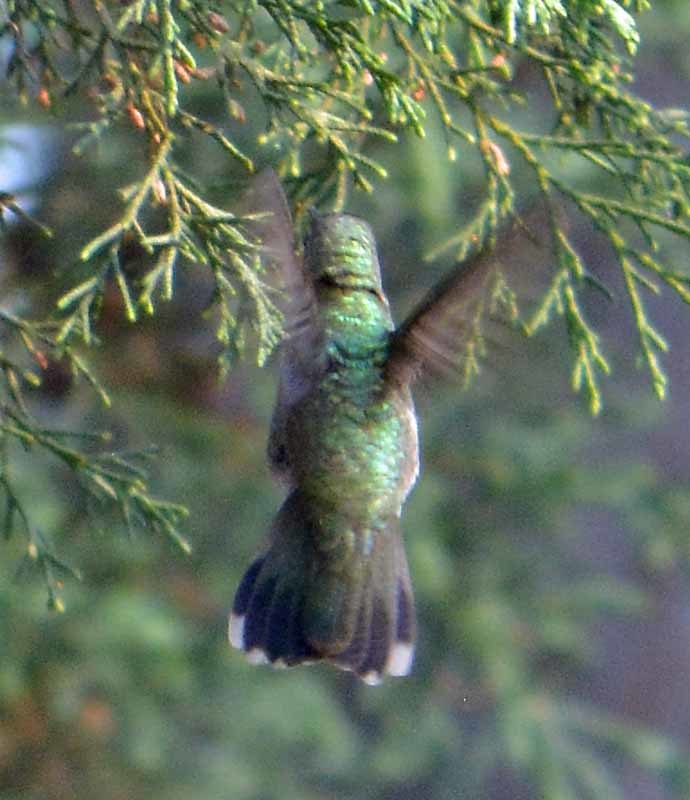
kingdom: Animalia
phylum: Chordata
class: Aves
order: Apodiformes
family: Trochilidae
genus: Cynanthus
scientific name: Cynanthus latirostris
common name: Broad-billed hummingbird
